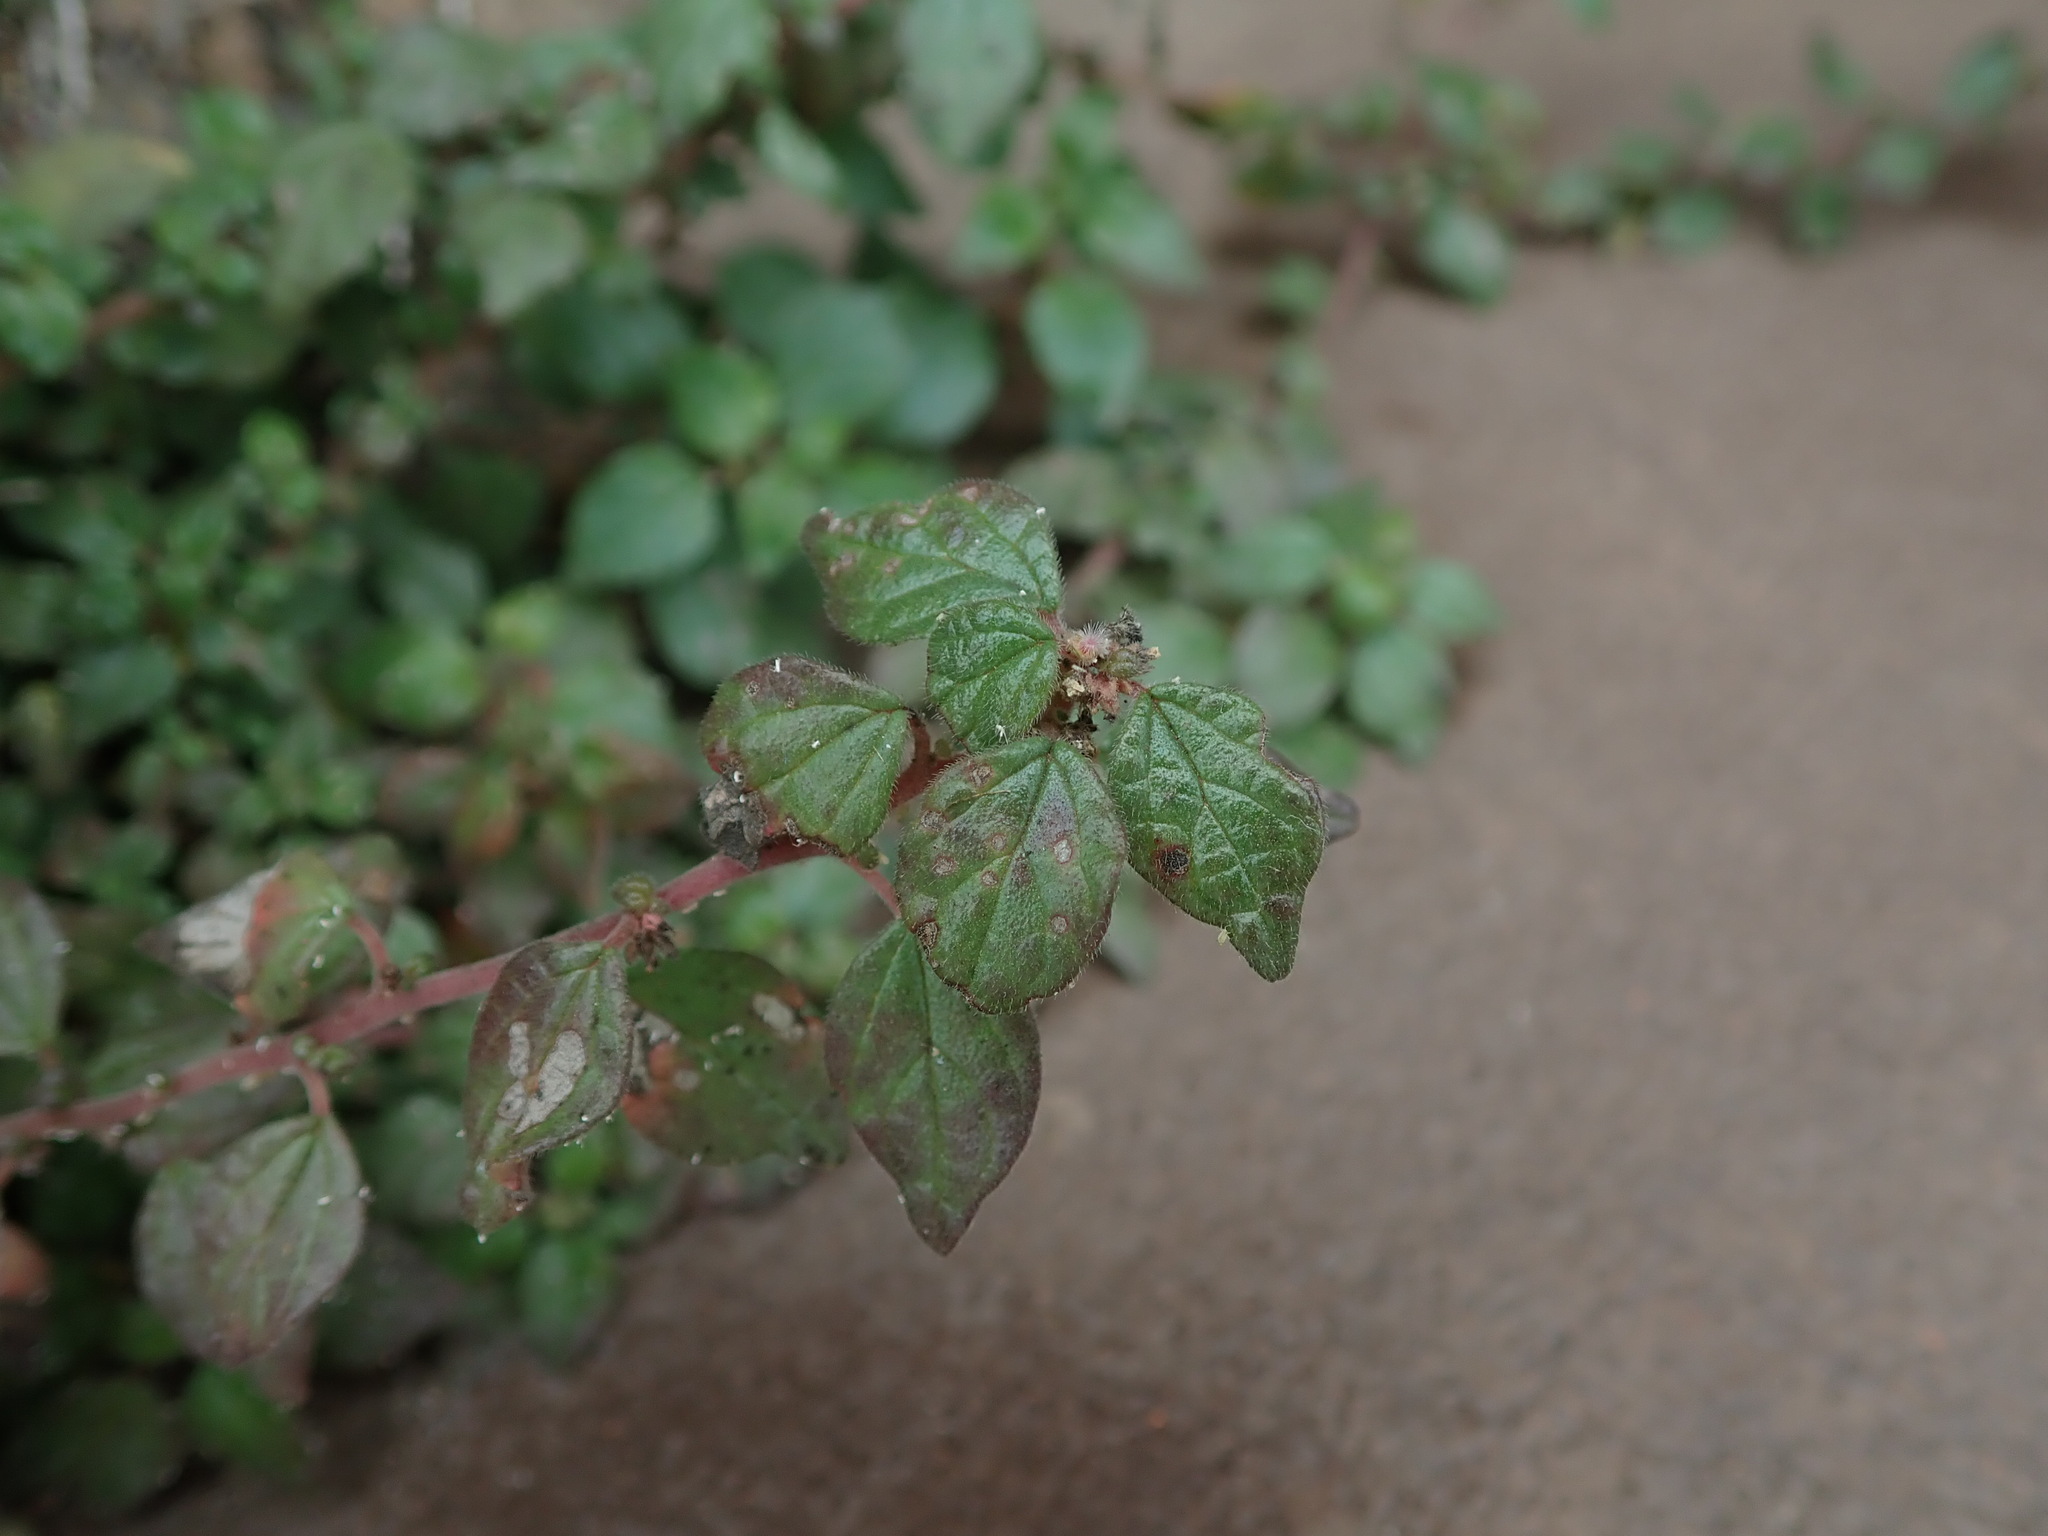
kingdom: Plantae
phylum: Tracheophyta
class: Magnoliopsida
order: Rosales
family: Urticaceae
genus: Parietaria
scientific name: Parietaria judaica
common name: Pellitory-of-the-wall
